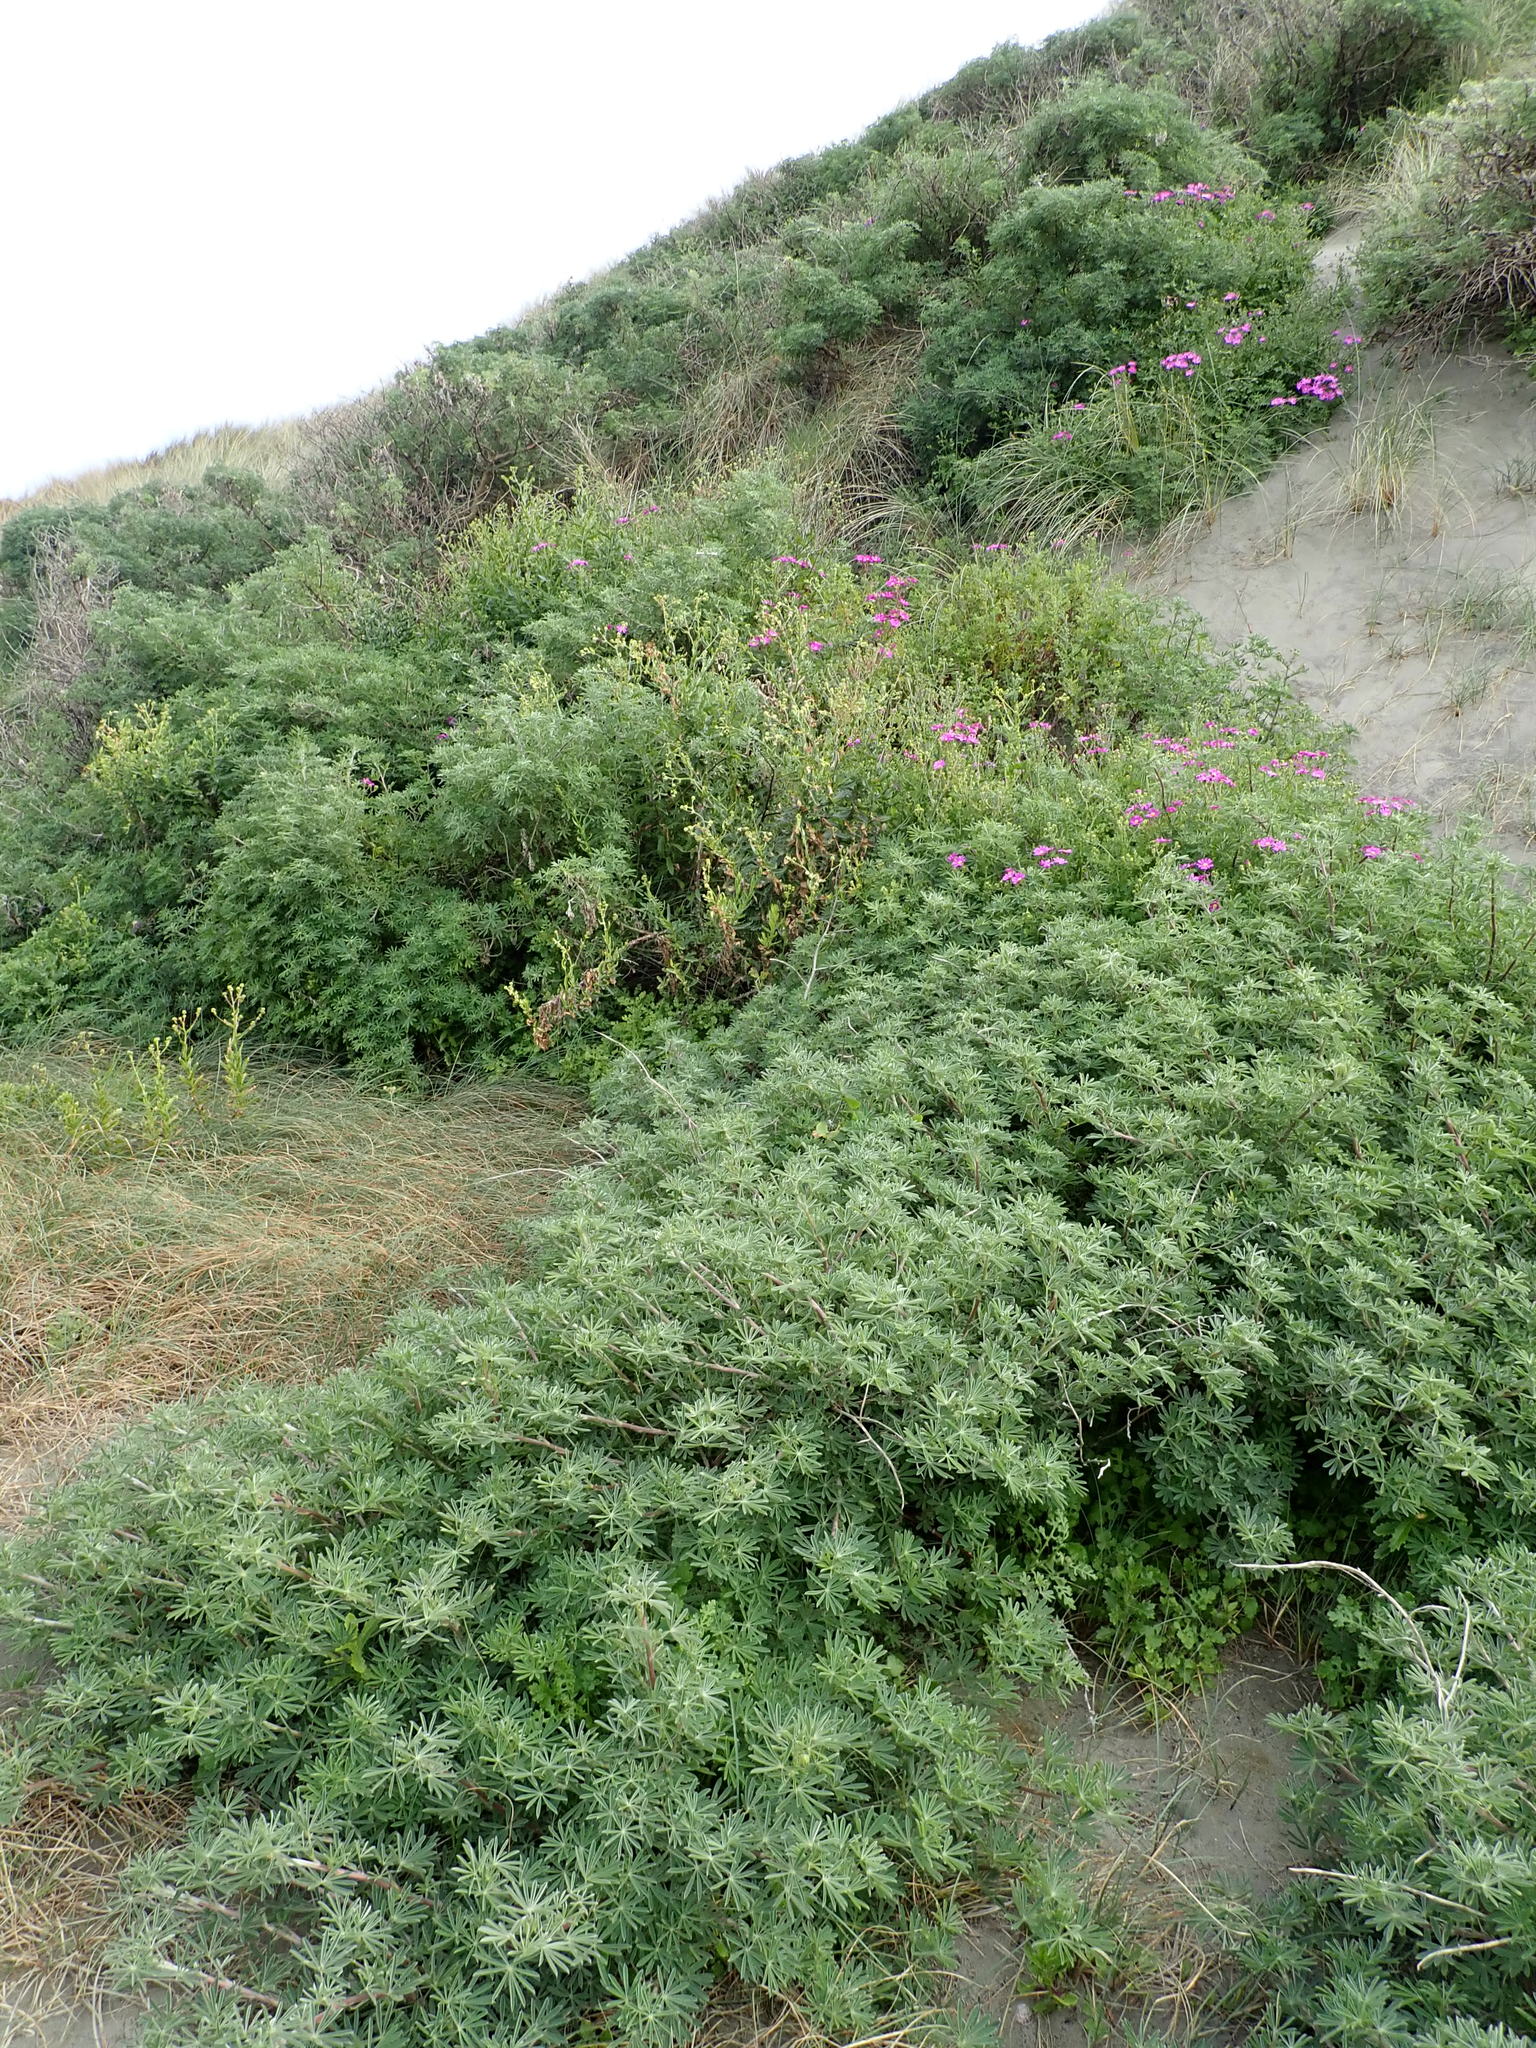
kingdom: Plantae
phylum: Tracheophyta
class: Magnoliopsida
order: Fabales
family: Fabaceae
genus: Lupinus
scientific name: Lupinus arboreus
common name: Yellow bush lupine
